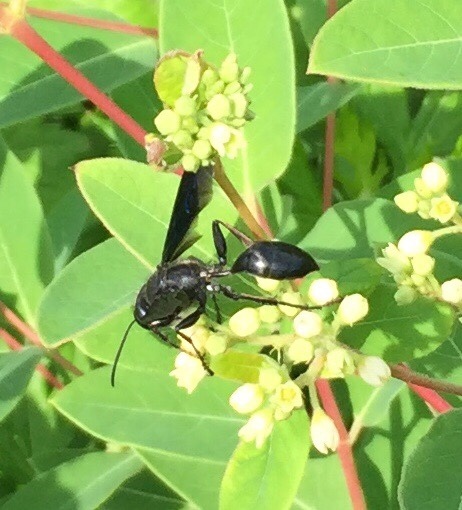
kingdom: Animalia
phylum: Arthropoda
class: Insecta
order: Hymenoptera
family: Sphecidae
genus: Sphex
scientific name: Sphex pensylvanicus
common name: Great black digger wasp
